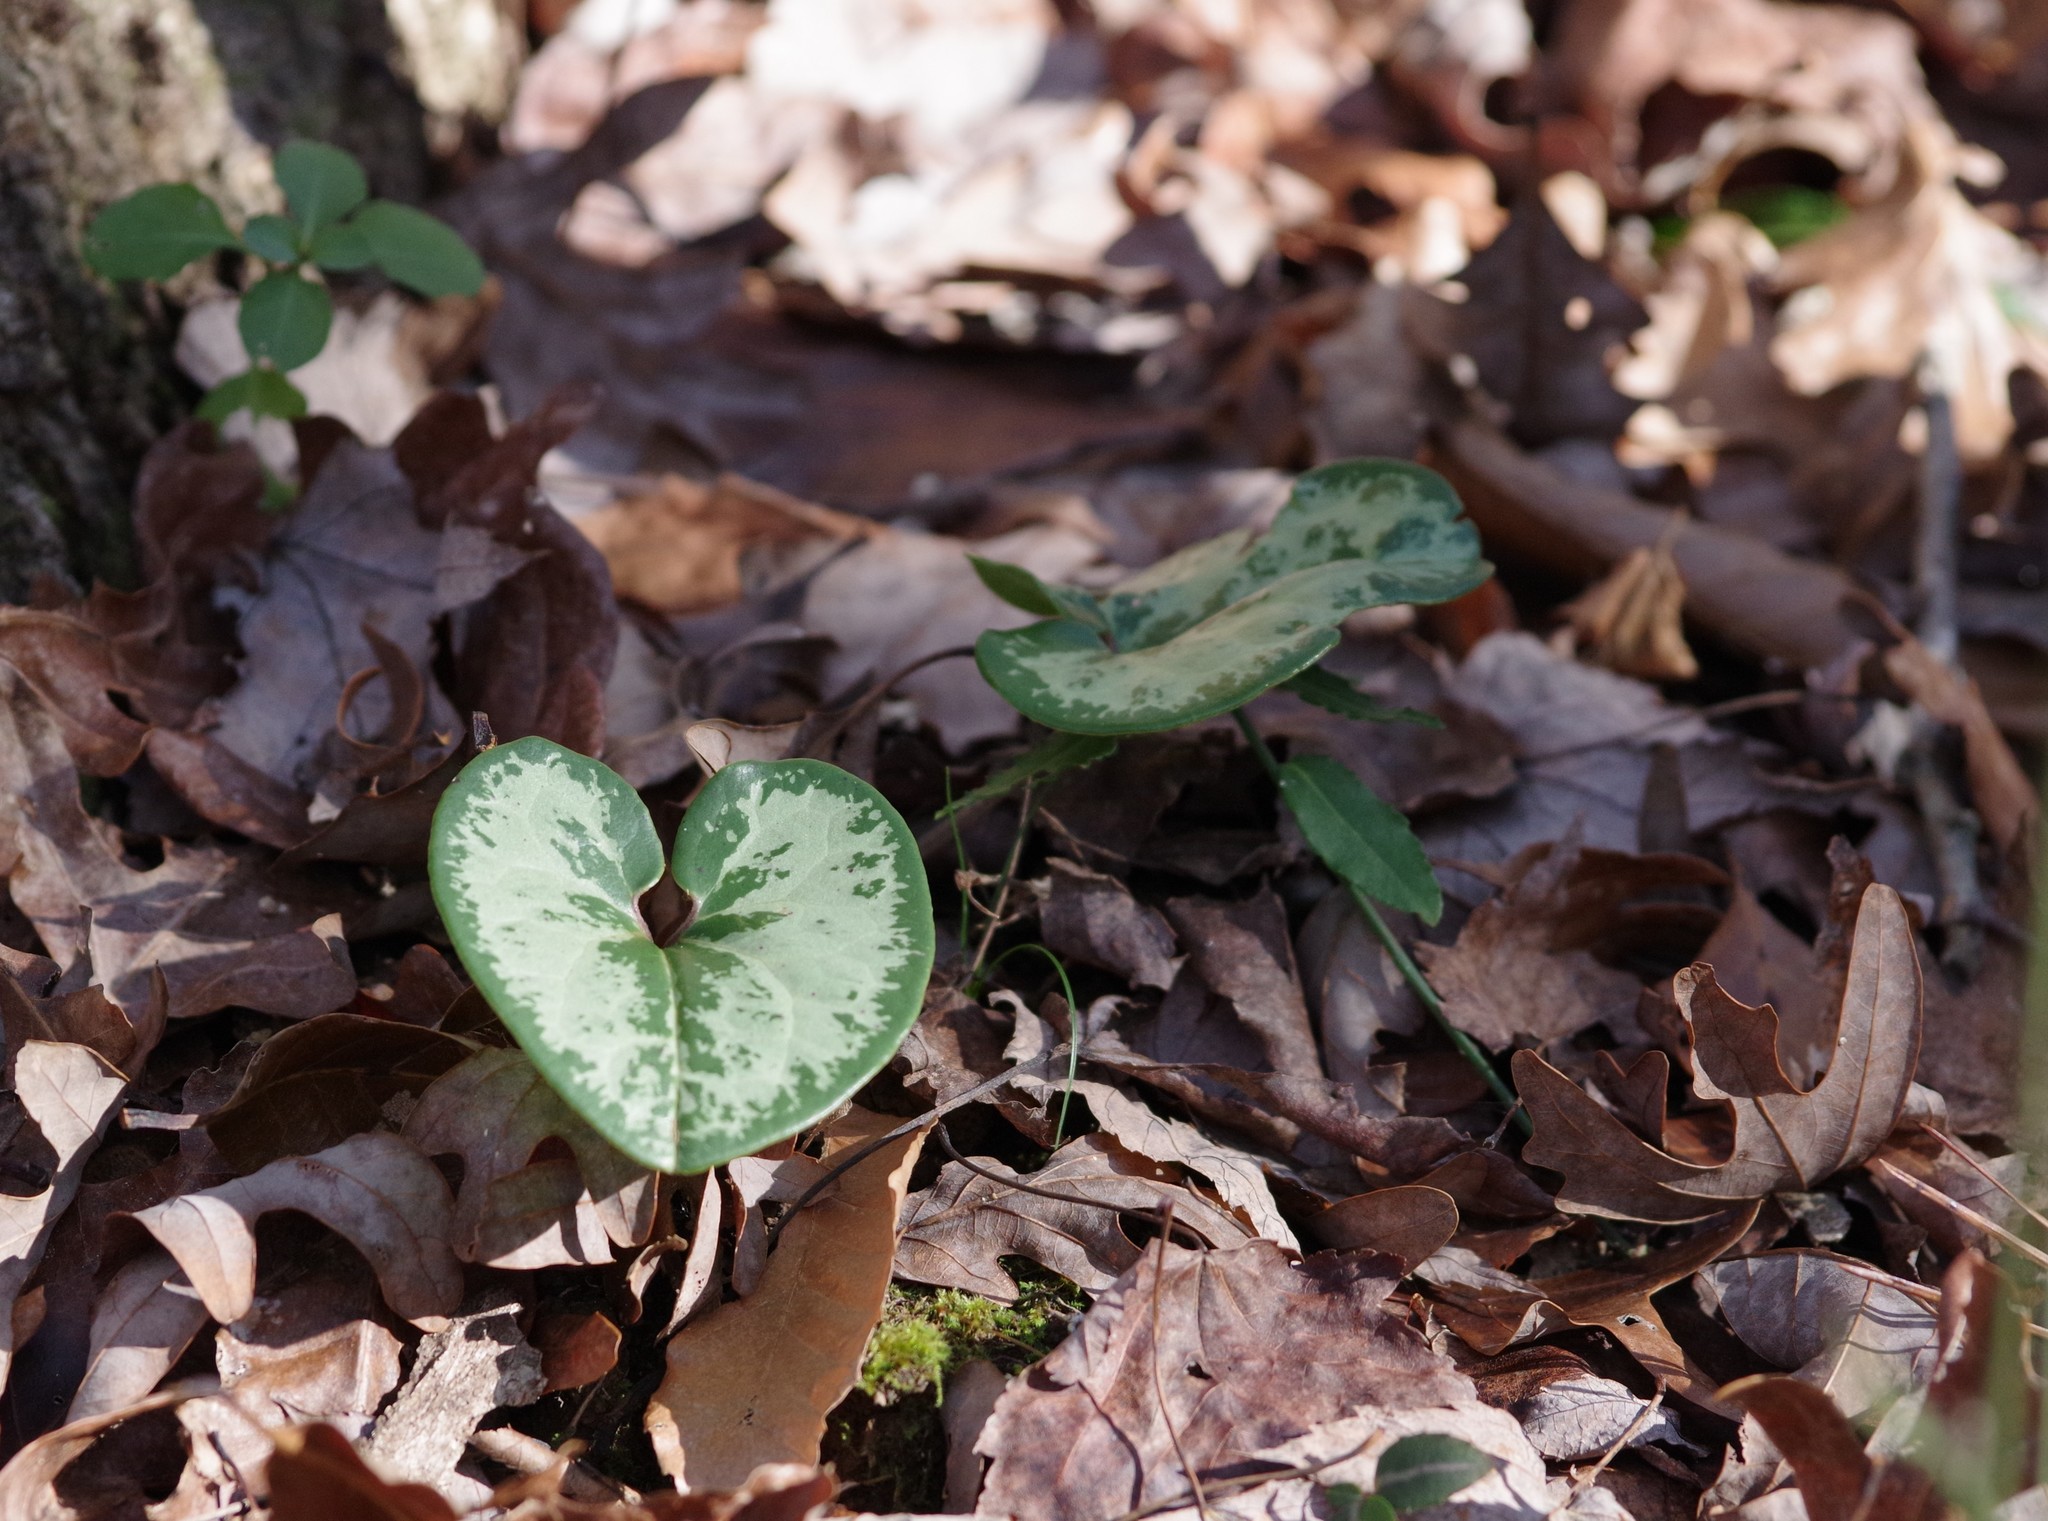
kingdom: Plantae
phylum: Tracheophyta
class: Magnoliopsida
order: Piperales
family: Aristolochiaceae
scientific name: Aristolochiaceae
